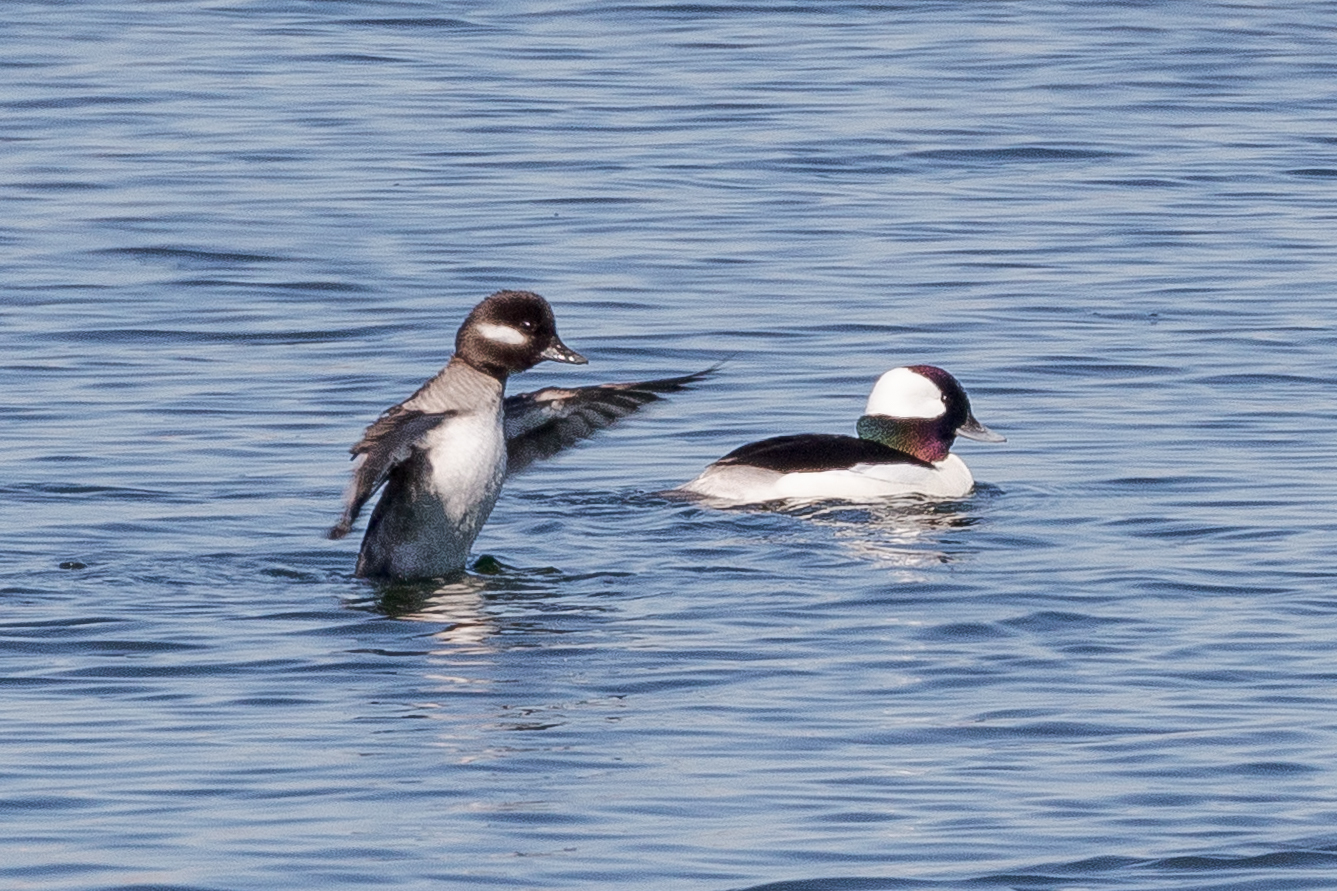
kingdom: Animalia
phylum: Chordata
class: Aves
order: Anseriformes
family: Anatidae
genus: Bucephala
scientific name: Bucephala albeola
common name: Bufflehead
